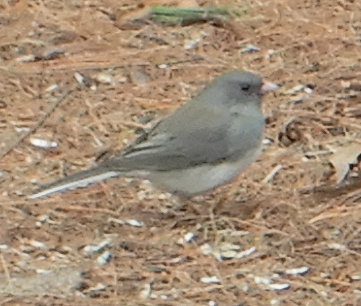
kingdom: Animalia
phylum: Chordata
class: Aves
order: Passeriformes
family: Passerellidae
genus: Junco
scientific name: Junco hyemalis
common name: Dark-eyed junco
